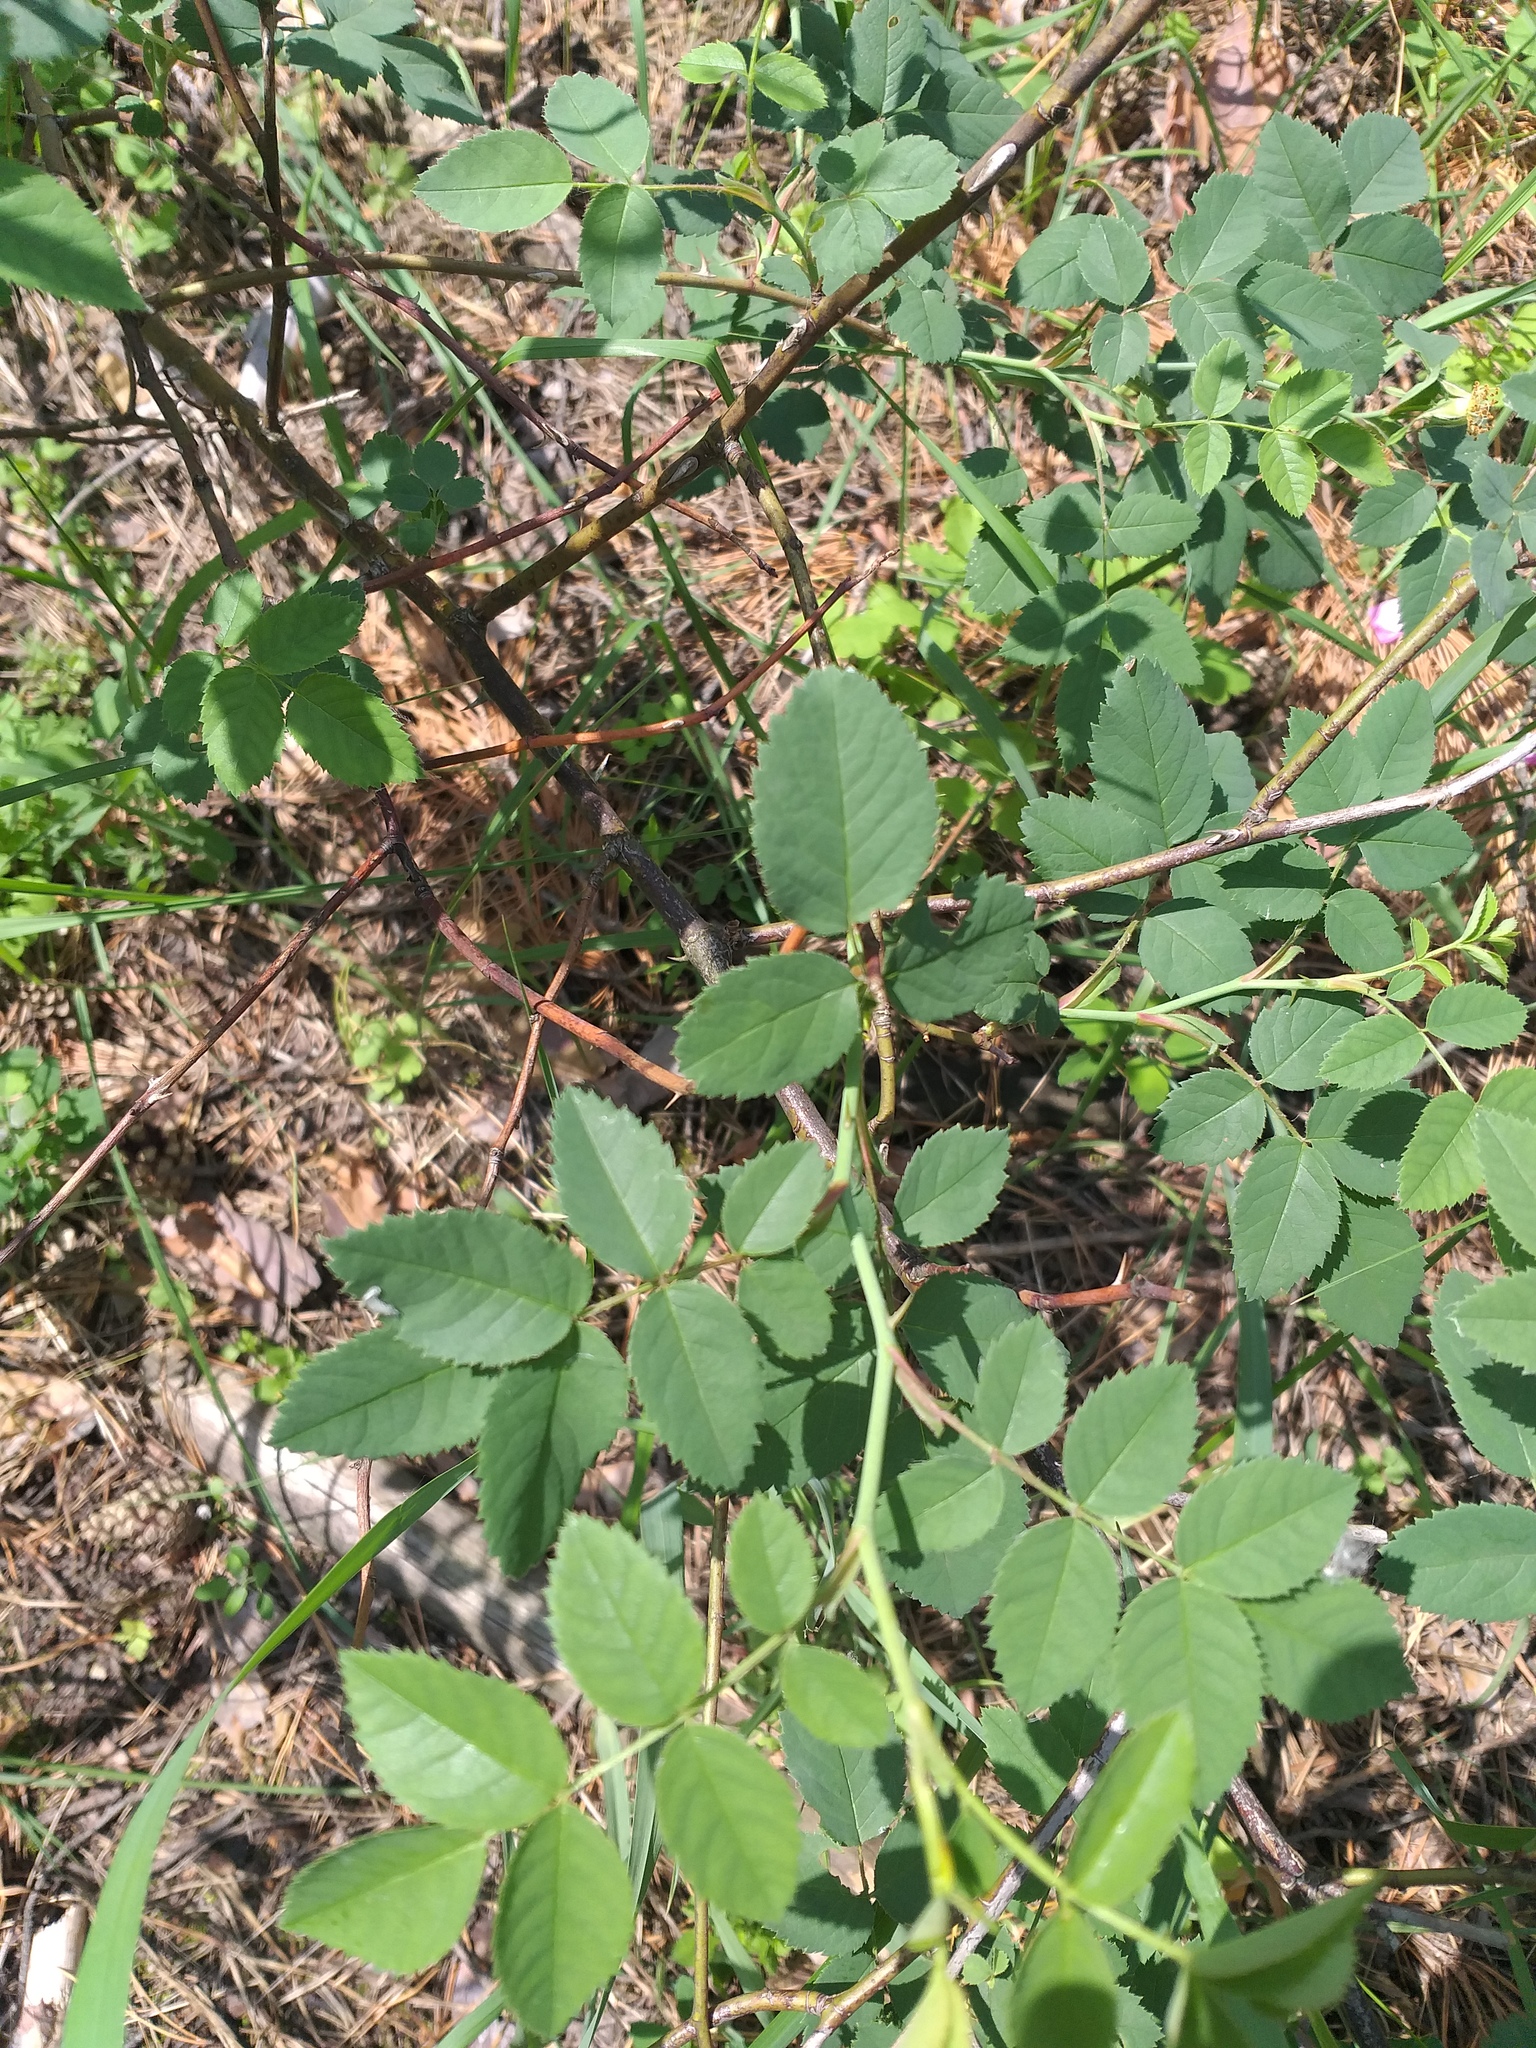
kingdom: Plantae
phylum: Tracheophyta
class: Magnoliopsida
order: Rosales
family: Rosaceae
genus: Rosa
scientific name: Rosa canina
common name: Dog rose
